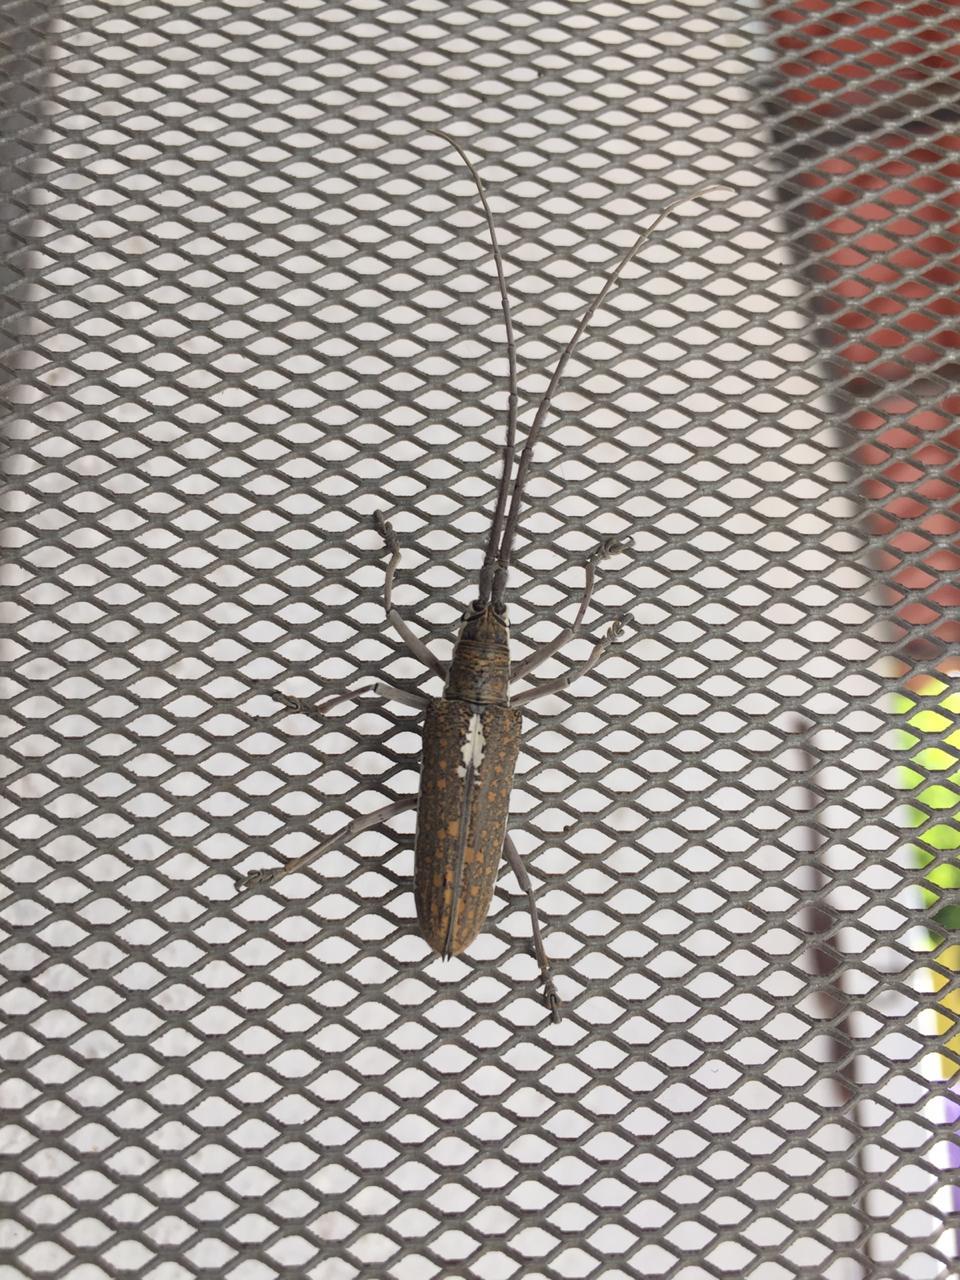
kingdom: Animalia
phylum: Arthropoda
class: Insecta
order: Coleoptera
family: Cerambycidae
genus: Neoptychodes
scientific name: Neoptychodes trilineatus
